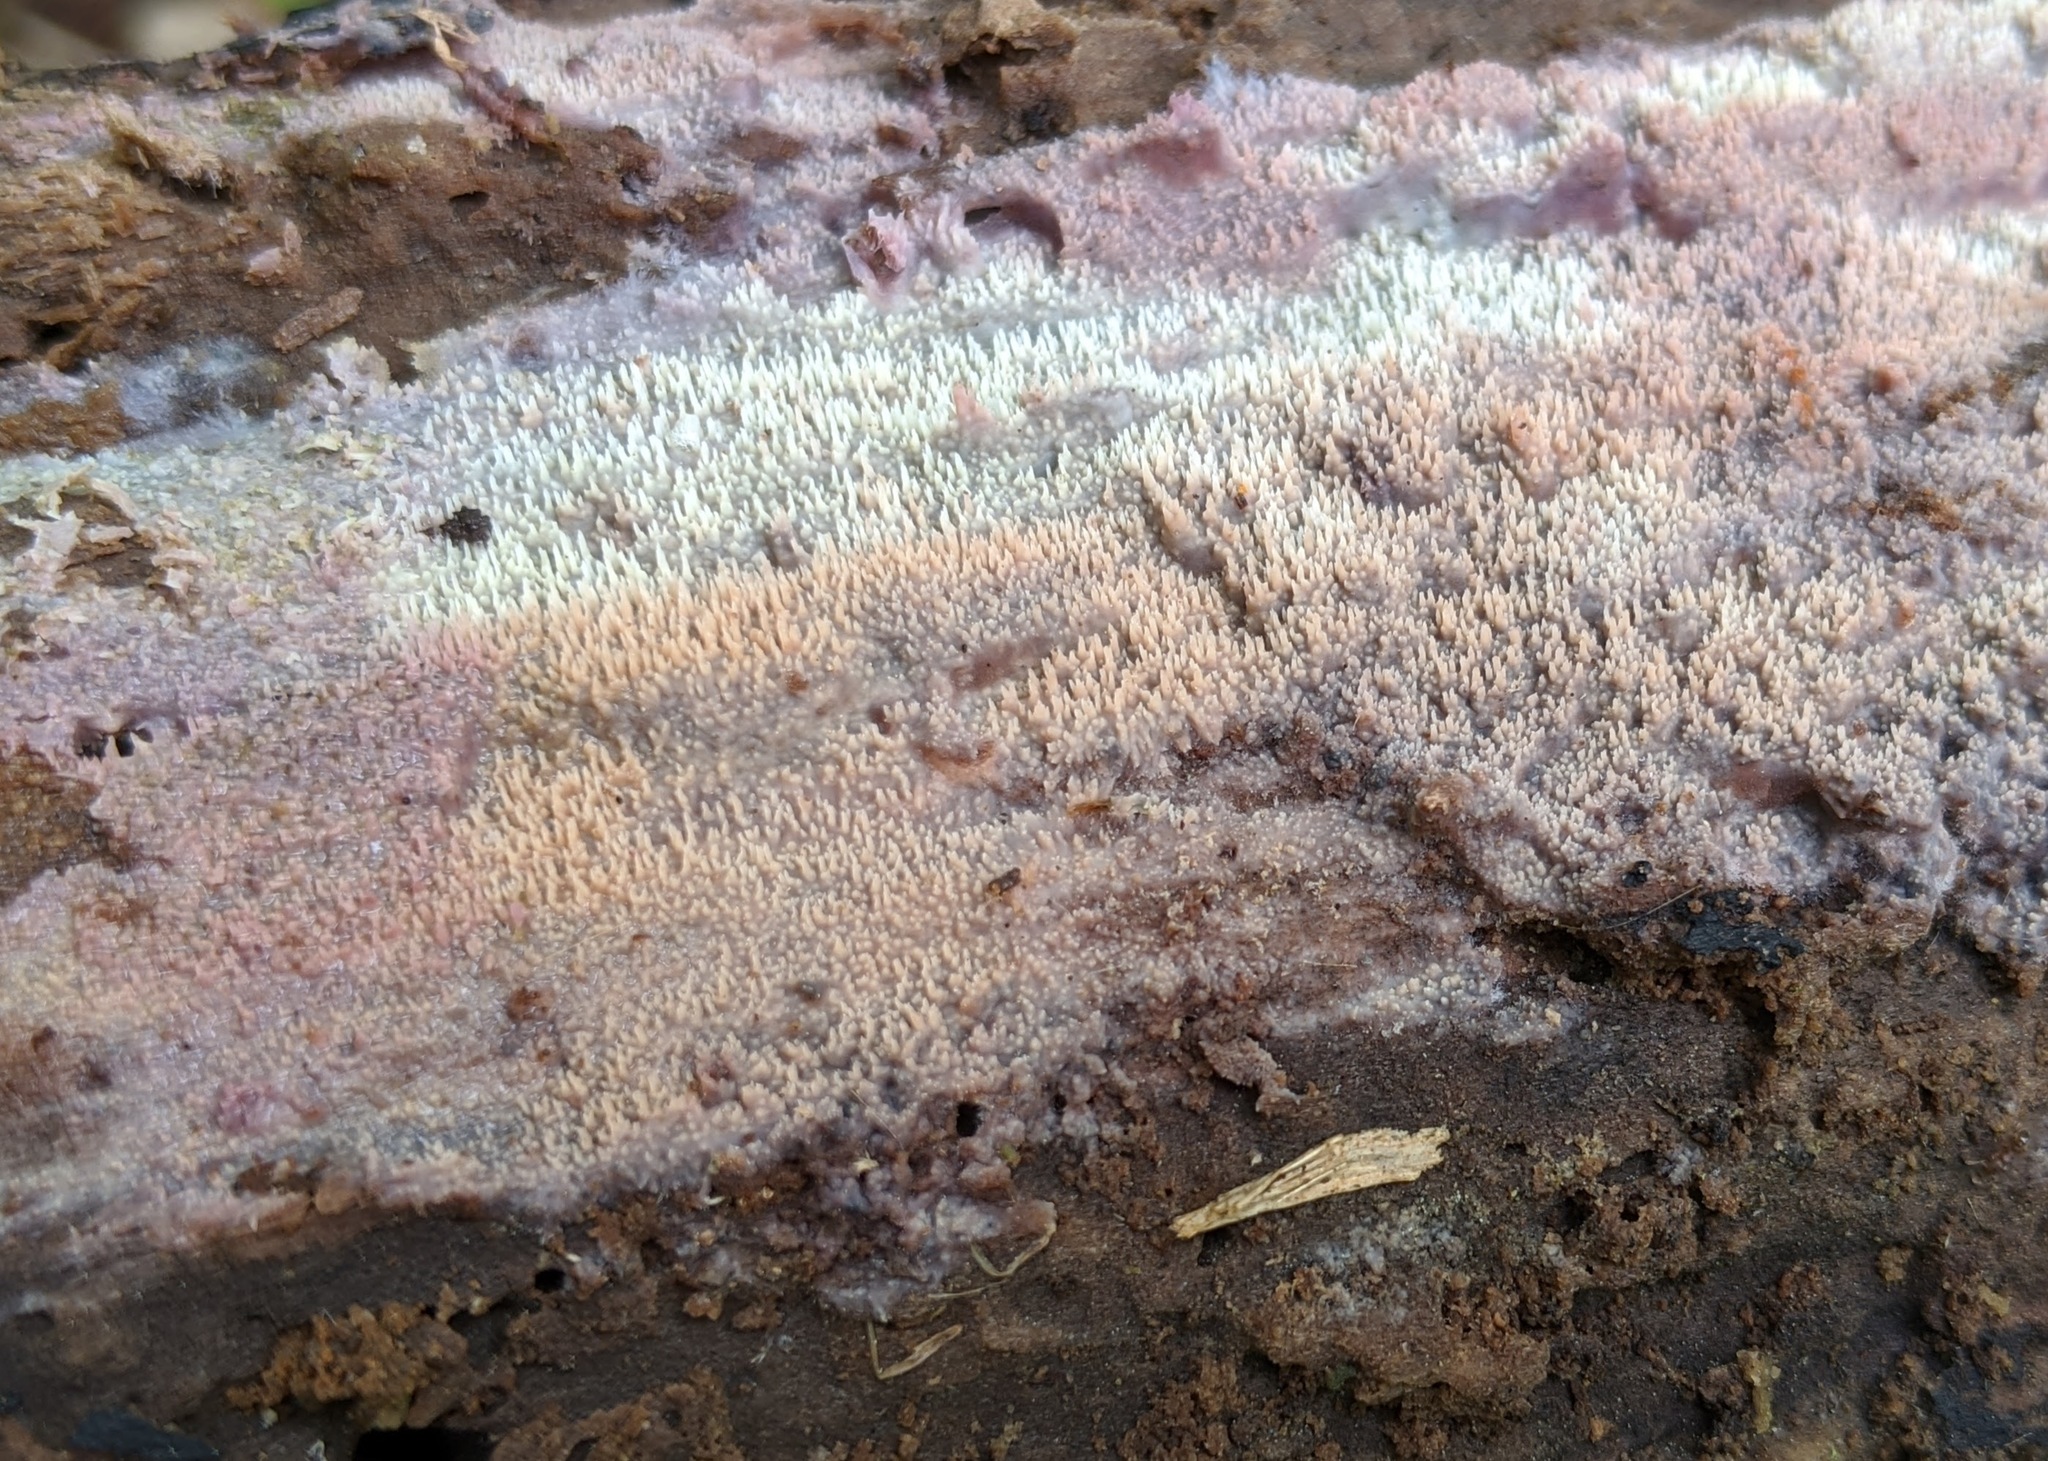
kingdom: Fungi
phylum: Basidiomycota
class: Agaricomycetes
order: Polyporales
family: Meruliaceae
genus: Mycoacia
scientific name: Mycoacia fuscoatra
